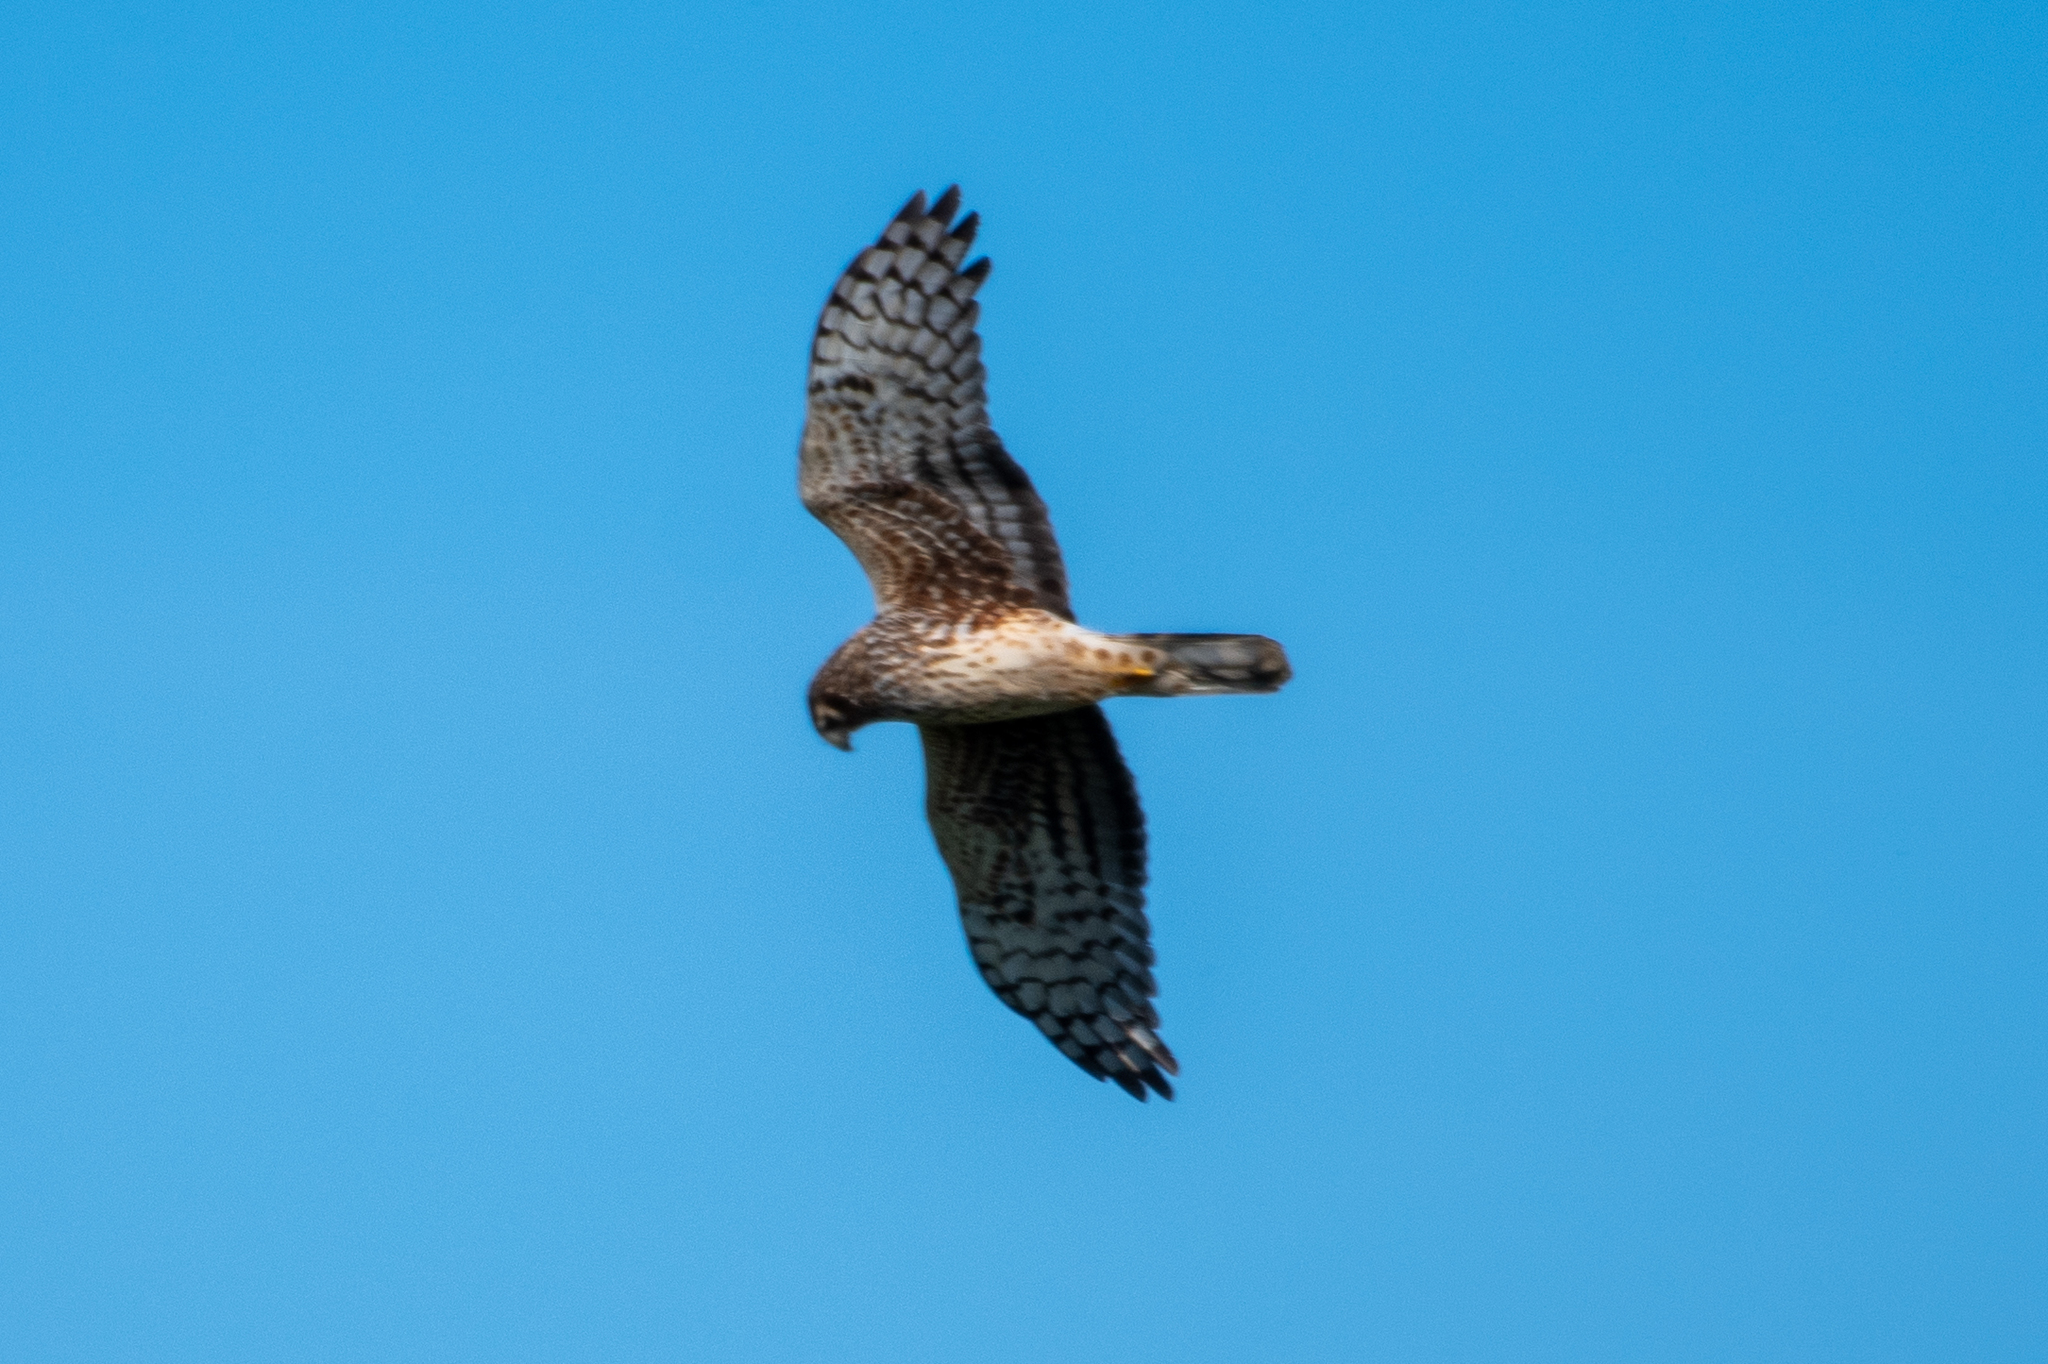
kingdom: Animalia
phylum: Chordata
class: Aves
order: Accipitriformes
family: Accipitridae
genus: Circus
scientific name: Circus cyaneus
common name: Hen harrier
